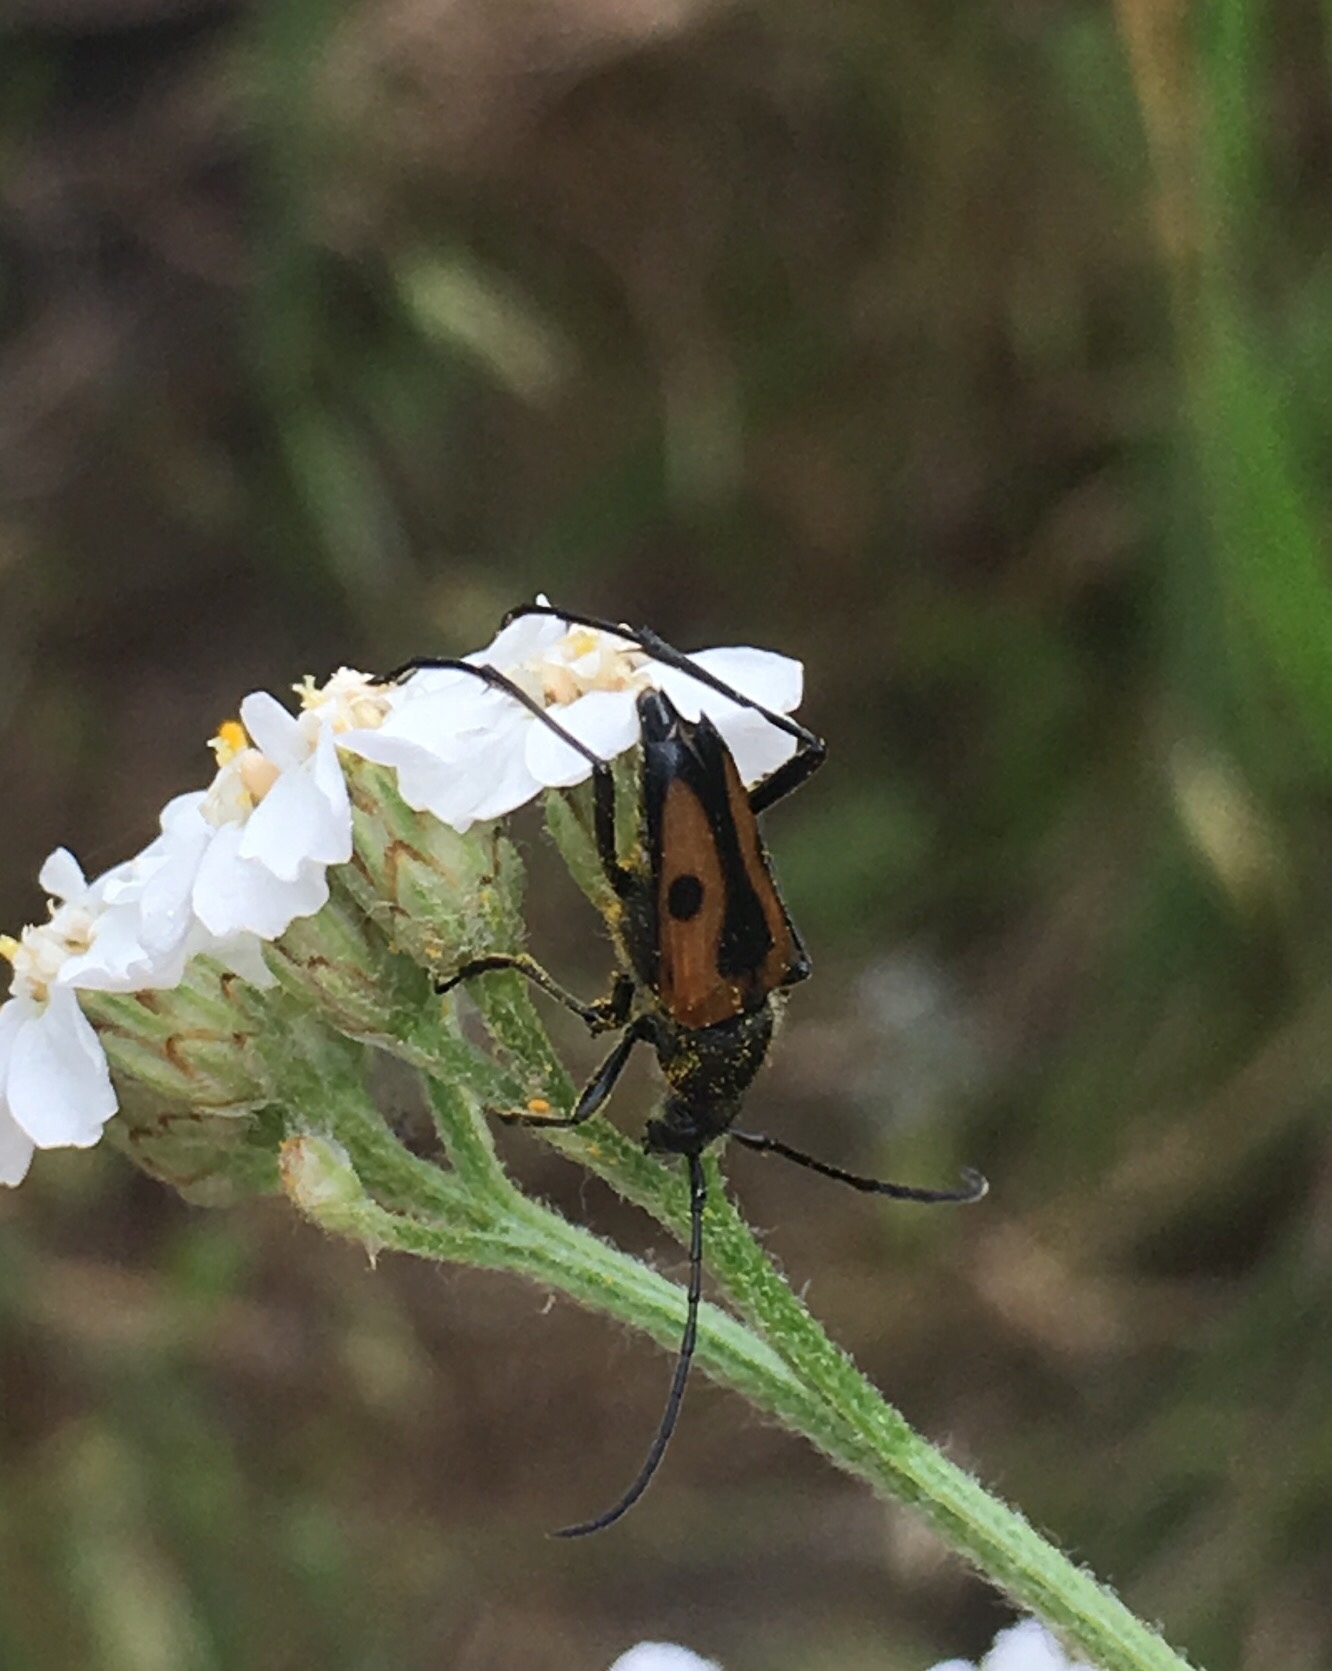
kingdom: Animalia
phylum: Arthropoda
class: Insecta
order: Coleoptera
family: Cerambycidae
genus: Anastrangalia
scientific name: Anastrangalia laetifica
